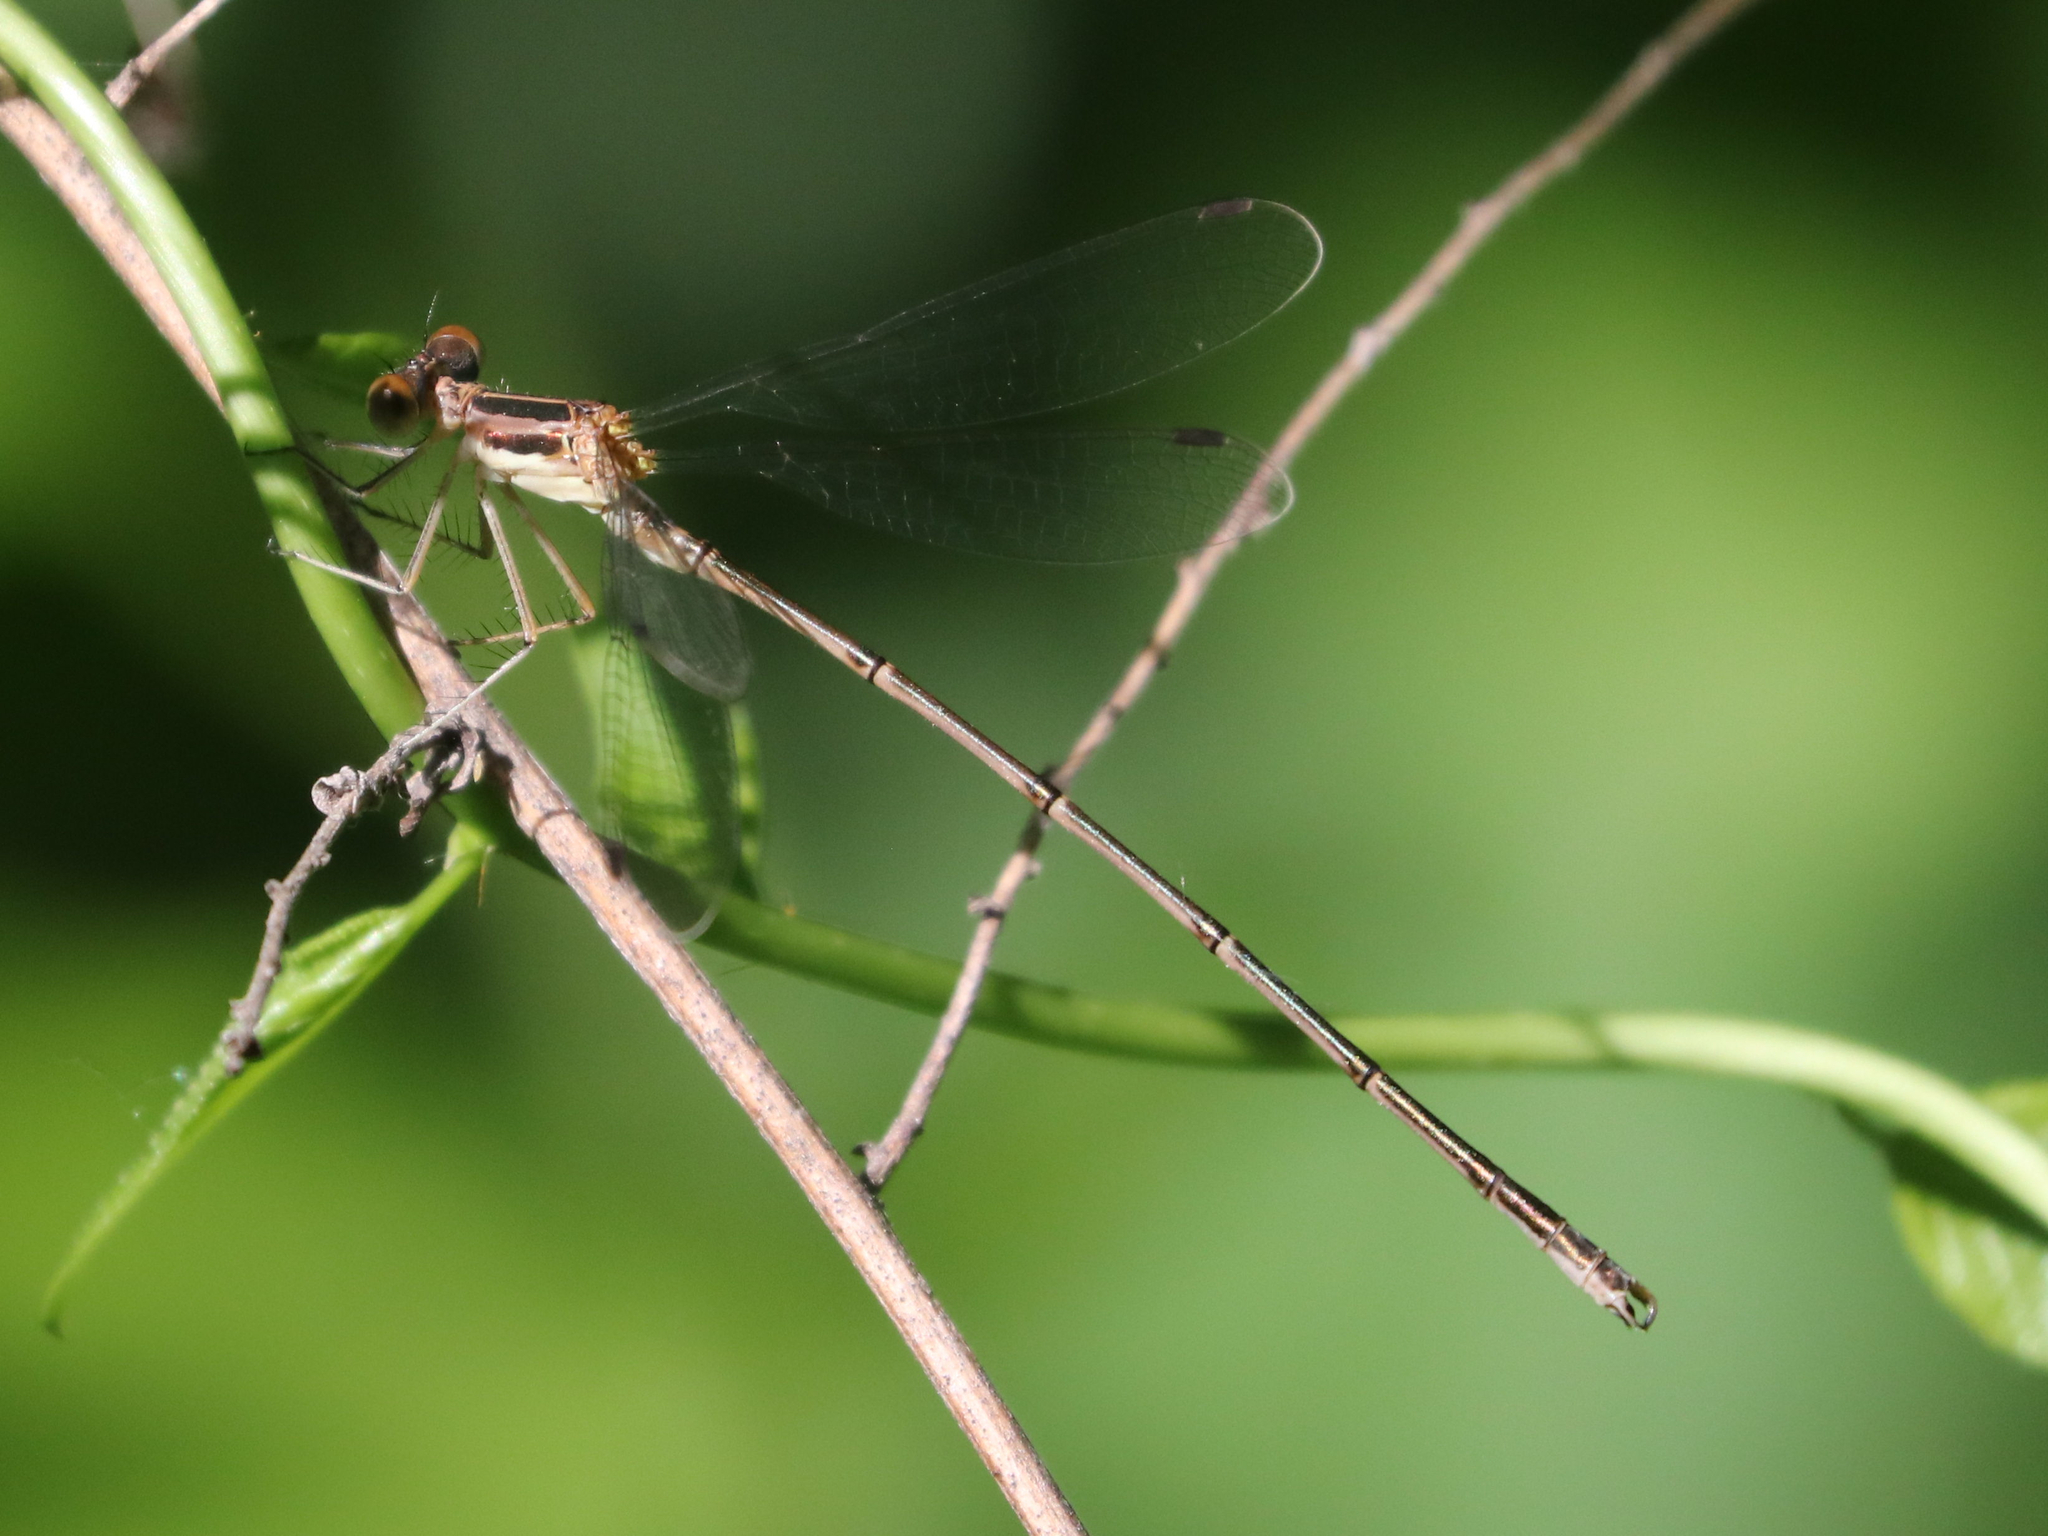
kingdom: Animalia
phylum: Arthropoda
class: Insecta
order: Odonata
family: Lestidae
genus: Lestes
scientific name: Lestes rectangularis
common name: Slender spreadwing
